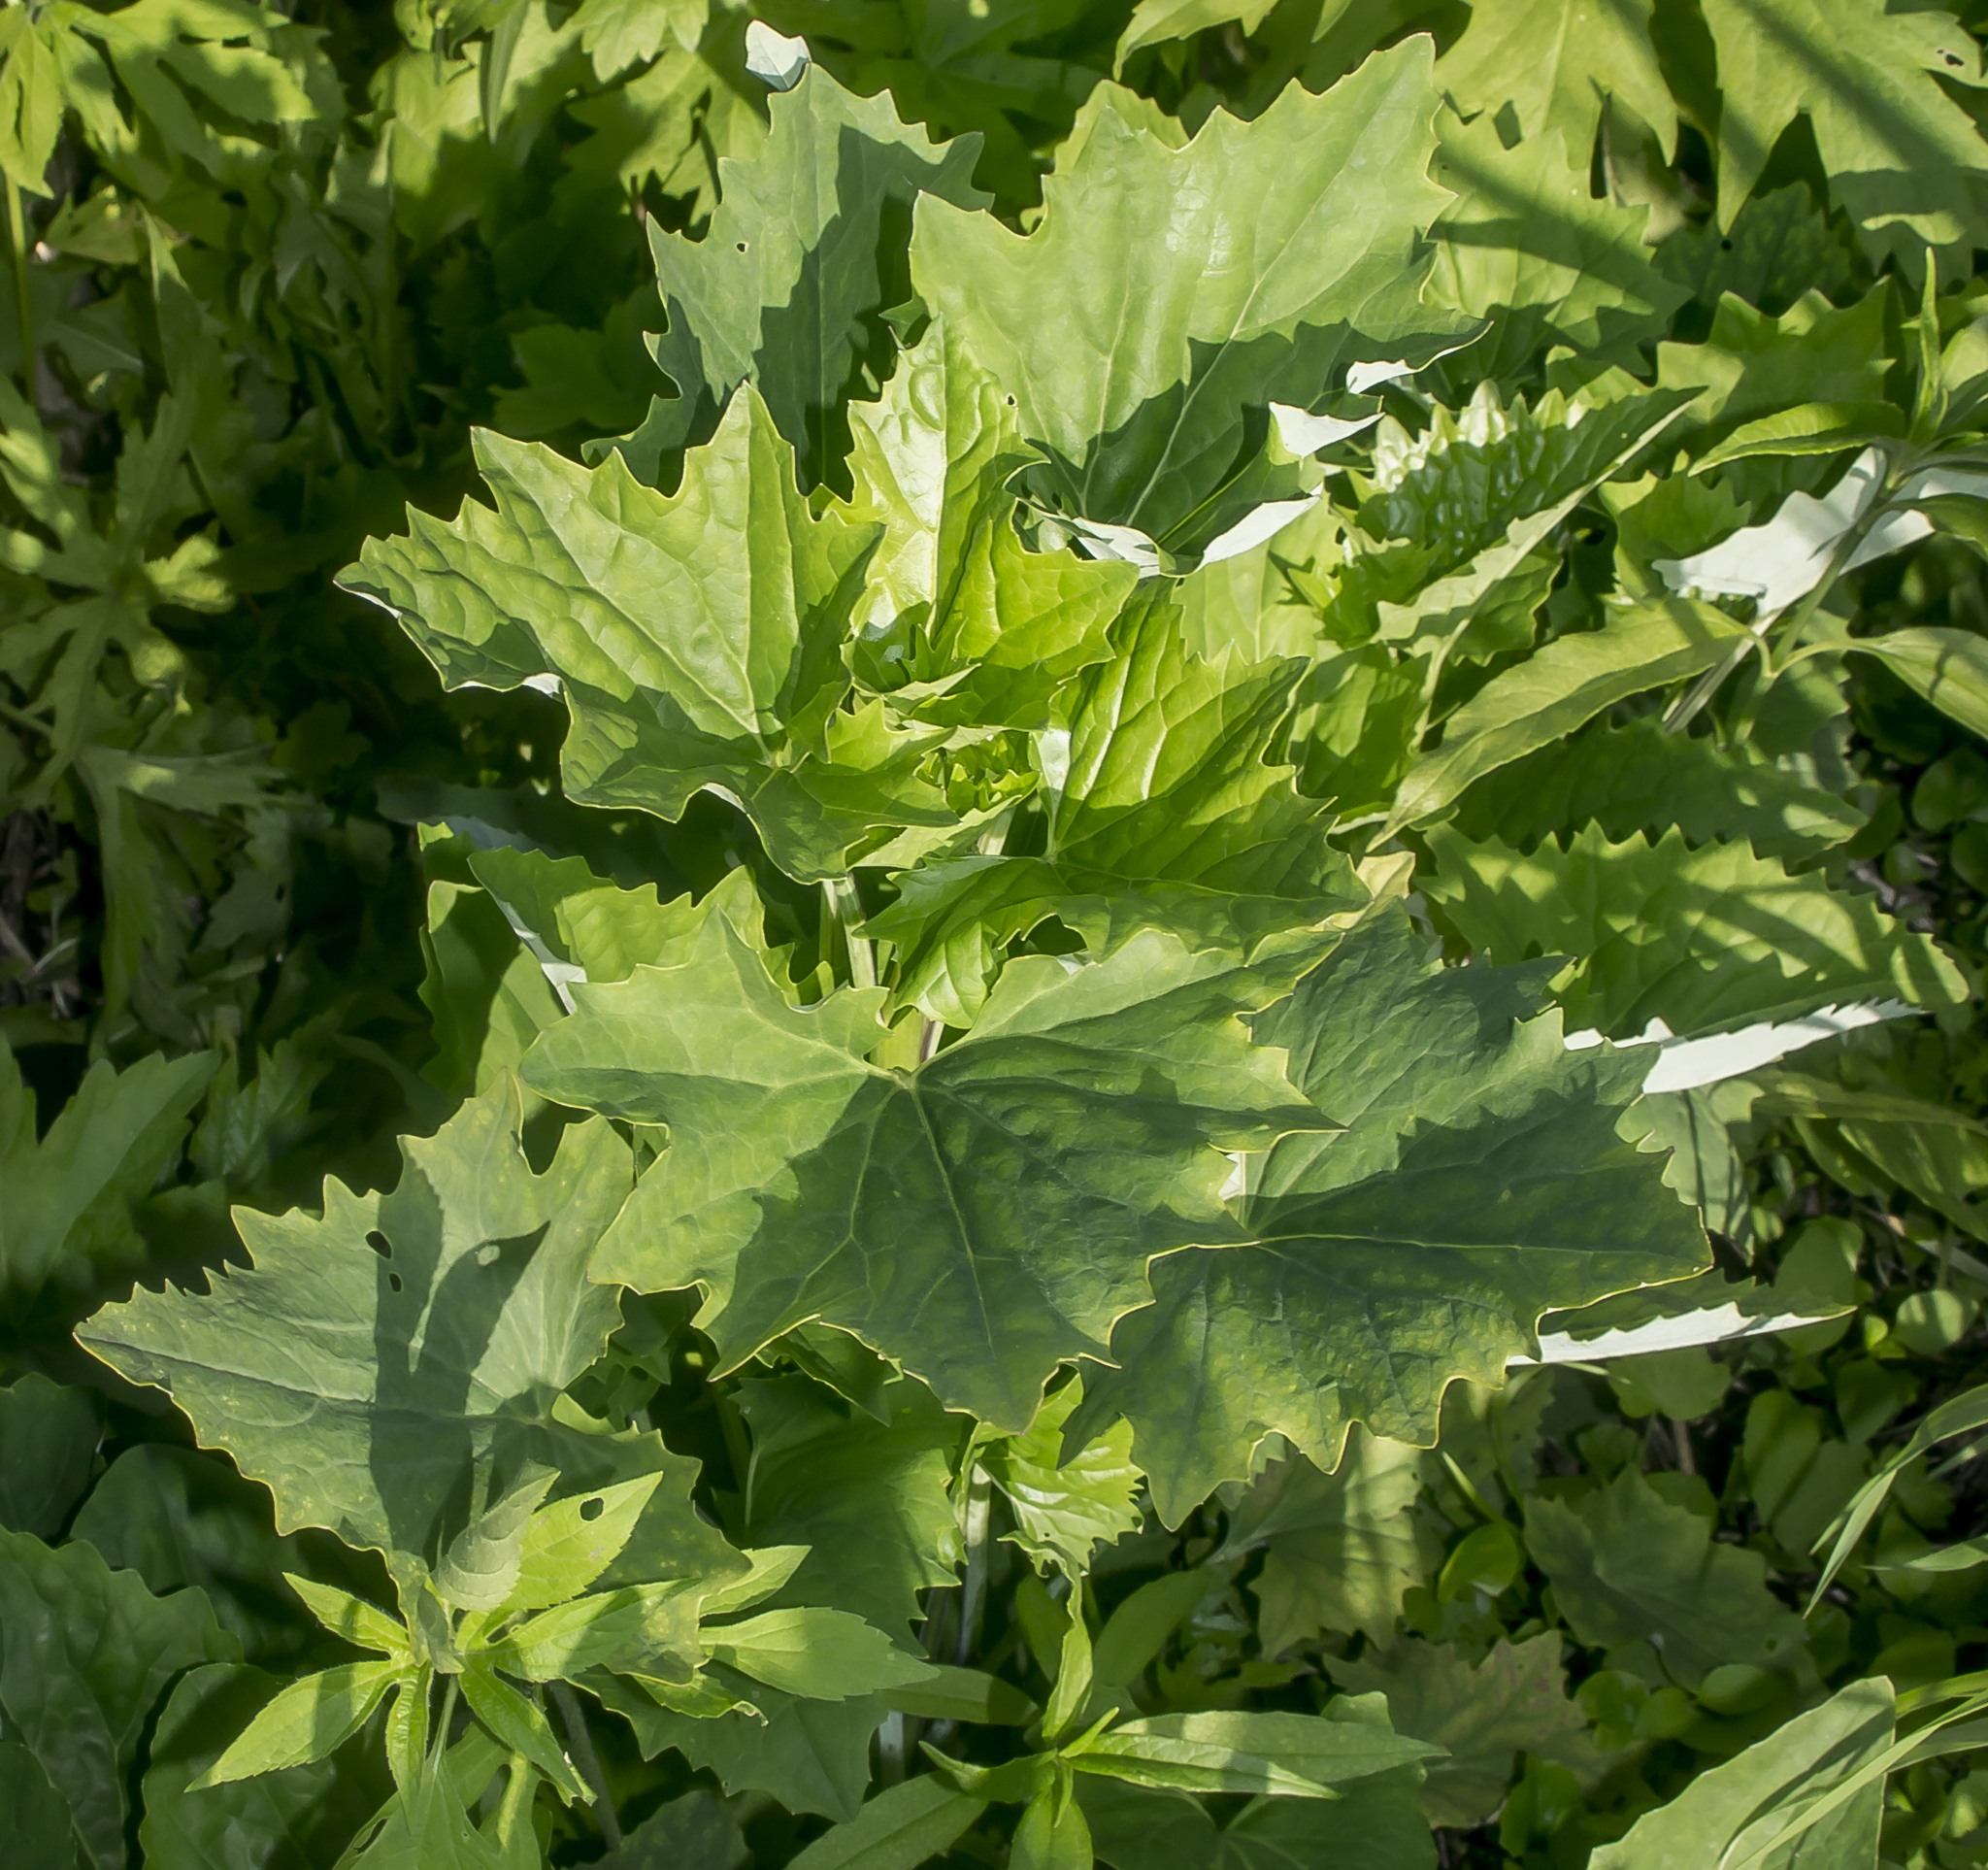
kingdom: Plantae
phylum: Tracheophyta
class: Magnoliopsida
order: Asterales
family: Asteraceae
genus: Arnoglossum
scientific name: Arnoglossum atriplicifolium
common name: Pale indian-plantain
